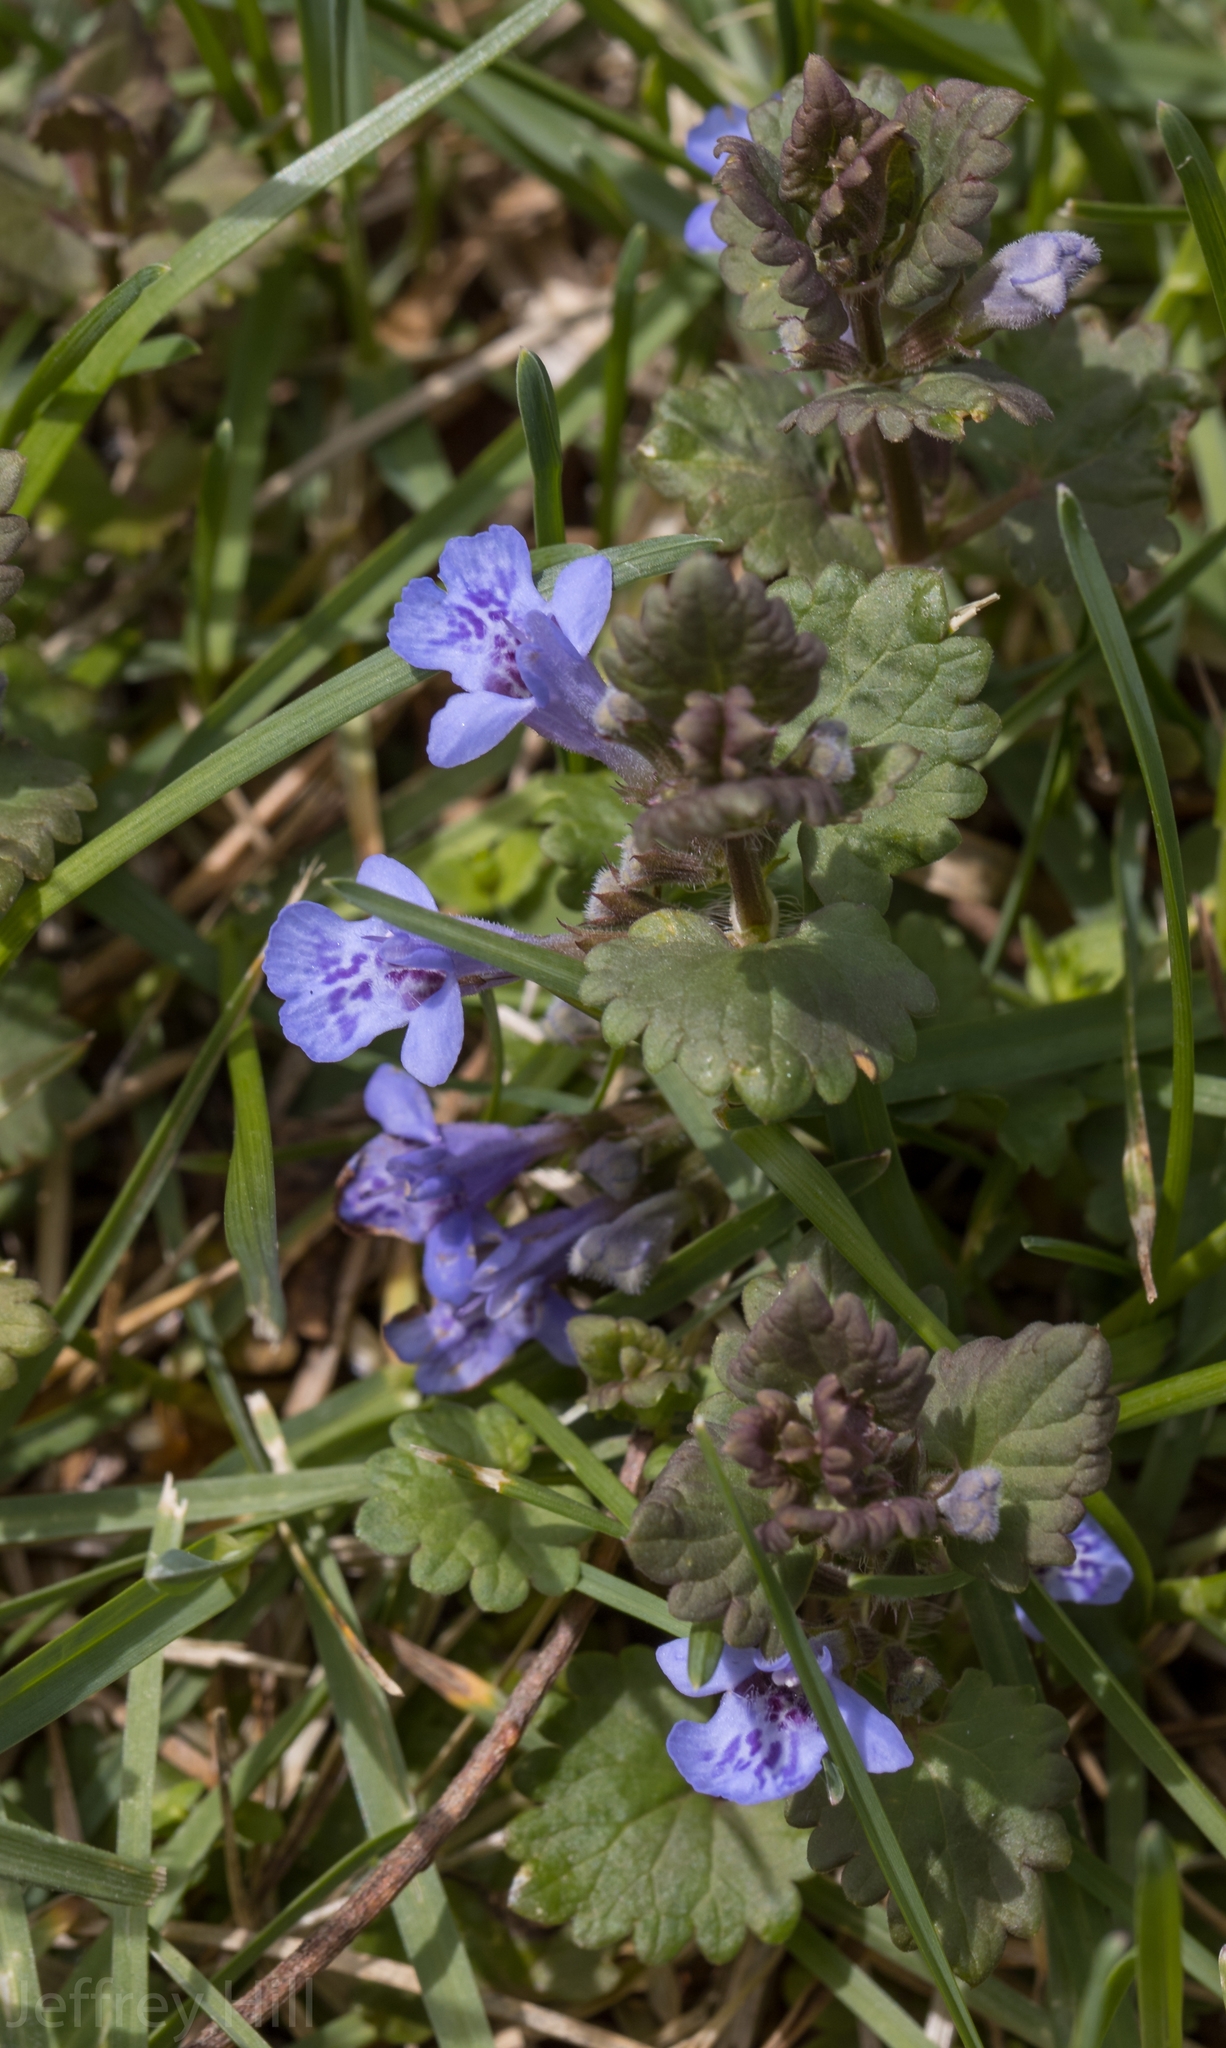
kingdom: Plantae
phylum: Tracheophyta
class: Magnoliopsida
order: Lamiales
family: Lamiaceae
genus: Glechoma
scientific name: Glechoma hederacea
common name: Ground ivy
